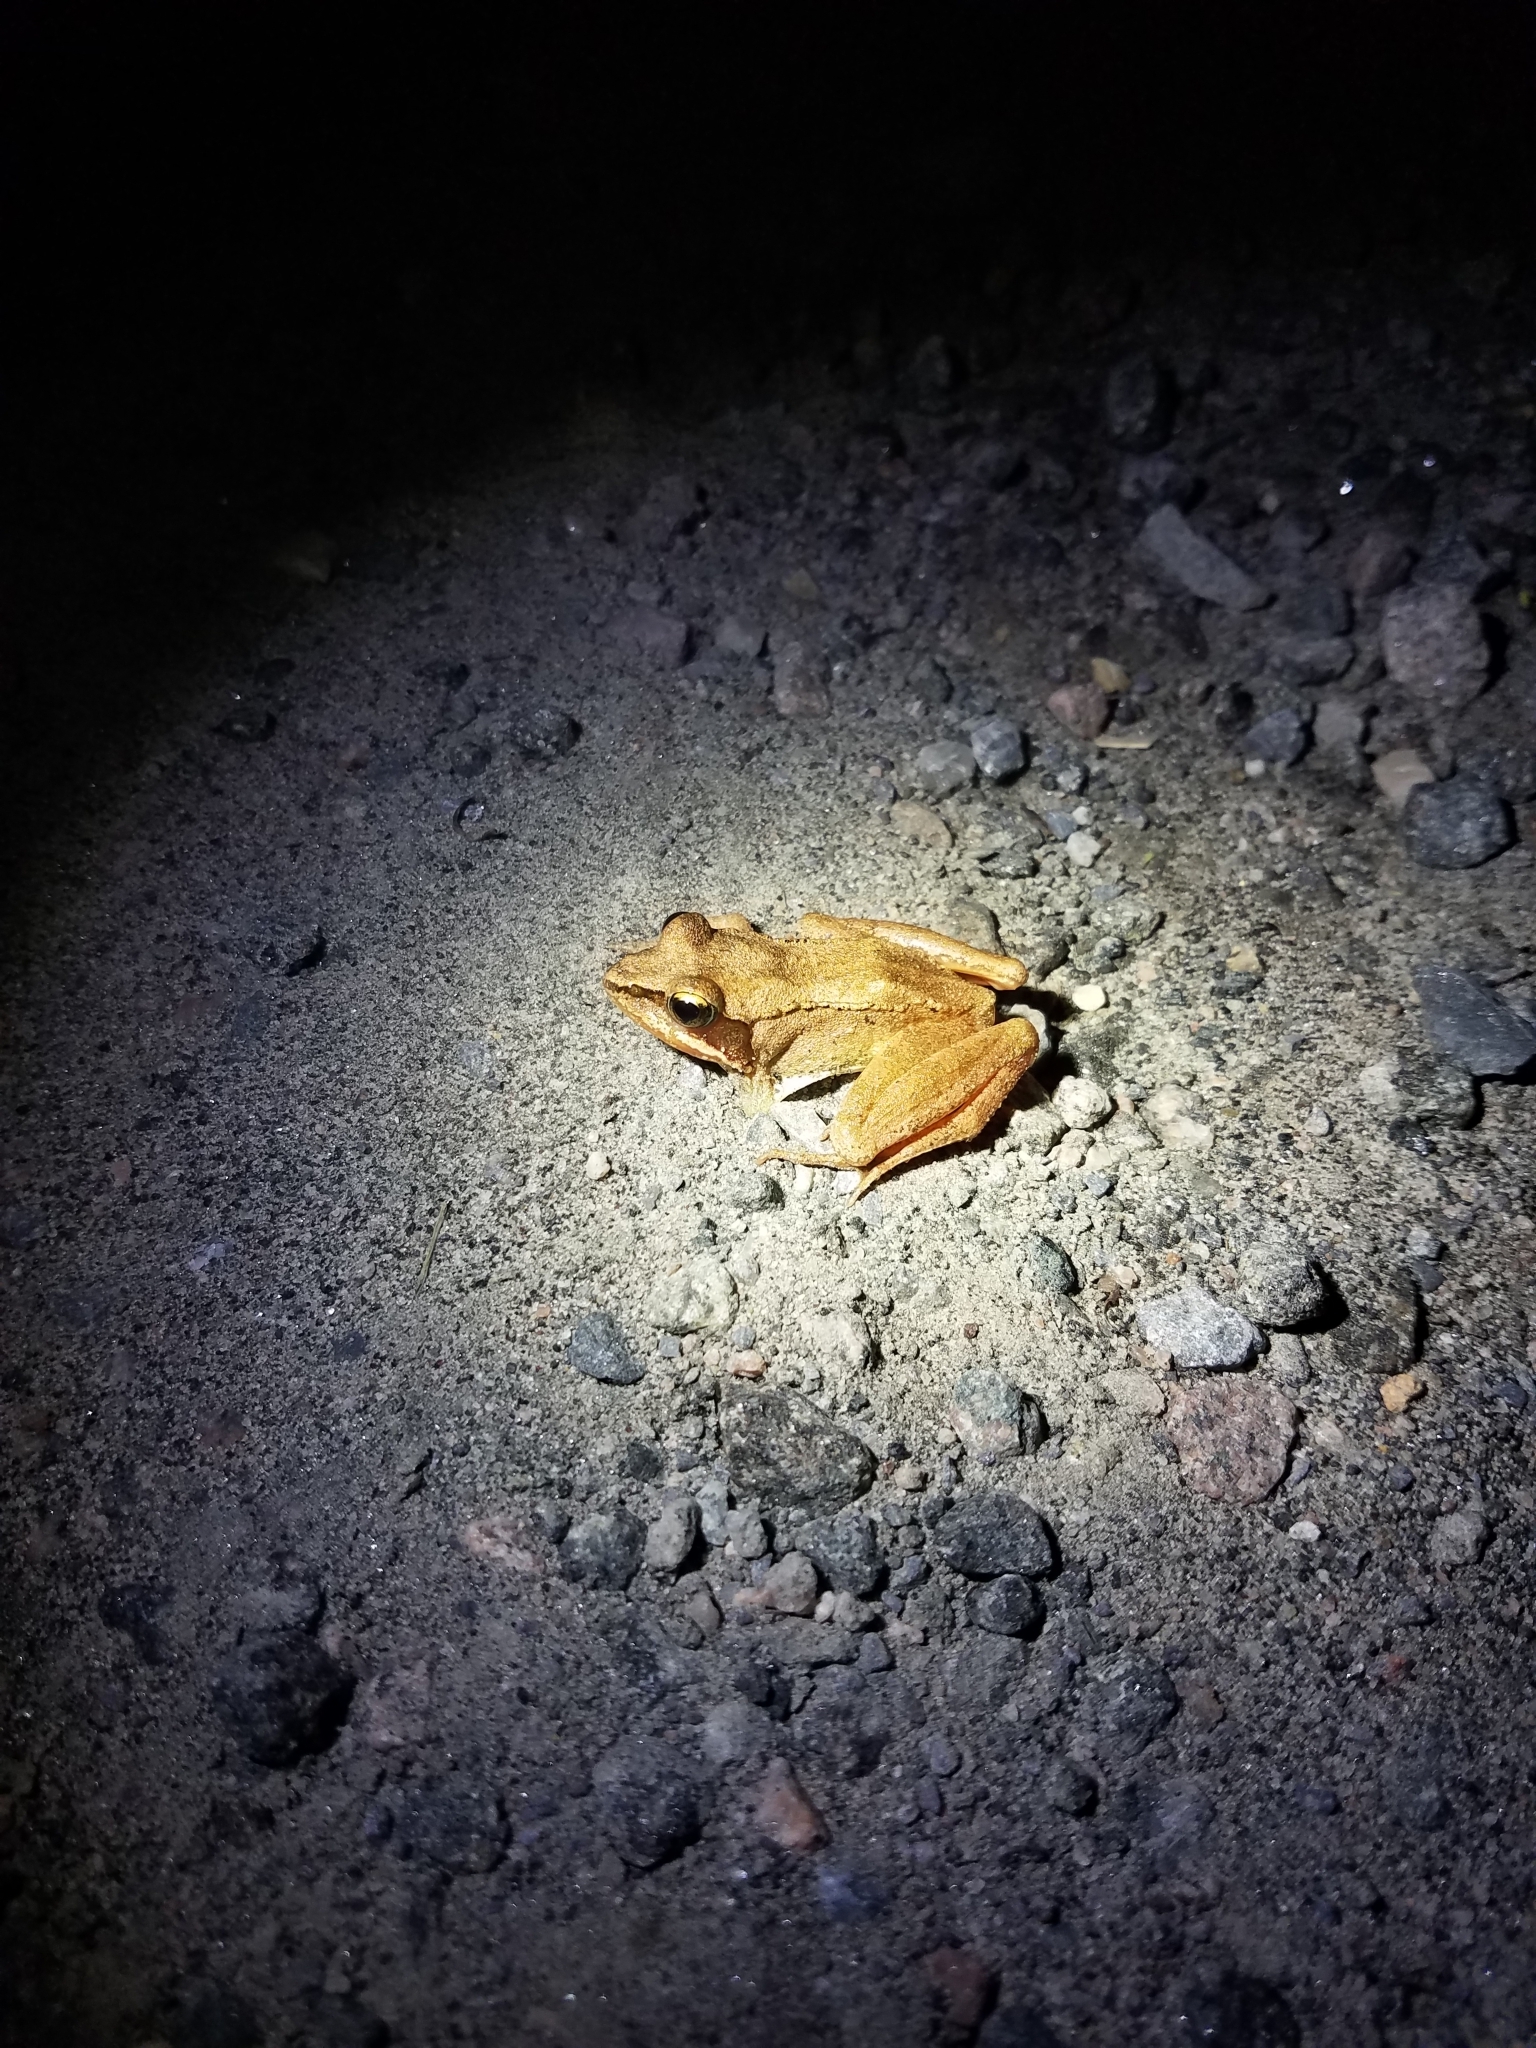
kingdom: Animalia
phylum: Chordata
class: Amphibia
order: Anura
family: Ranidae
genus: Lithobates
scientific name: Lithobates sylvaticus
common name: Wood frog
